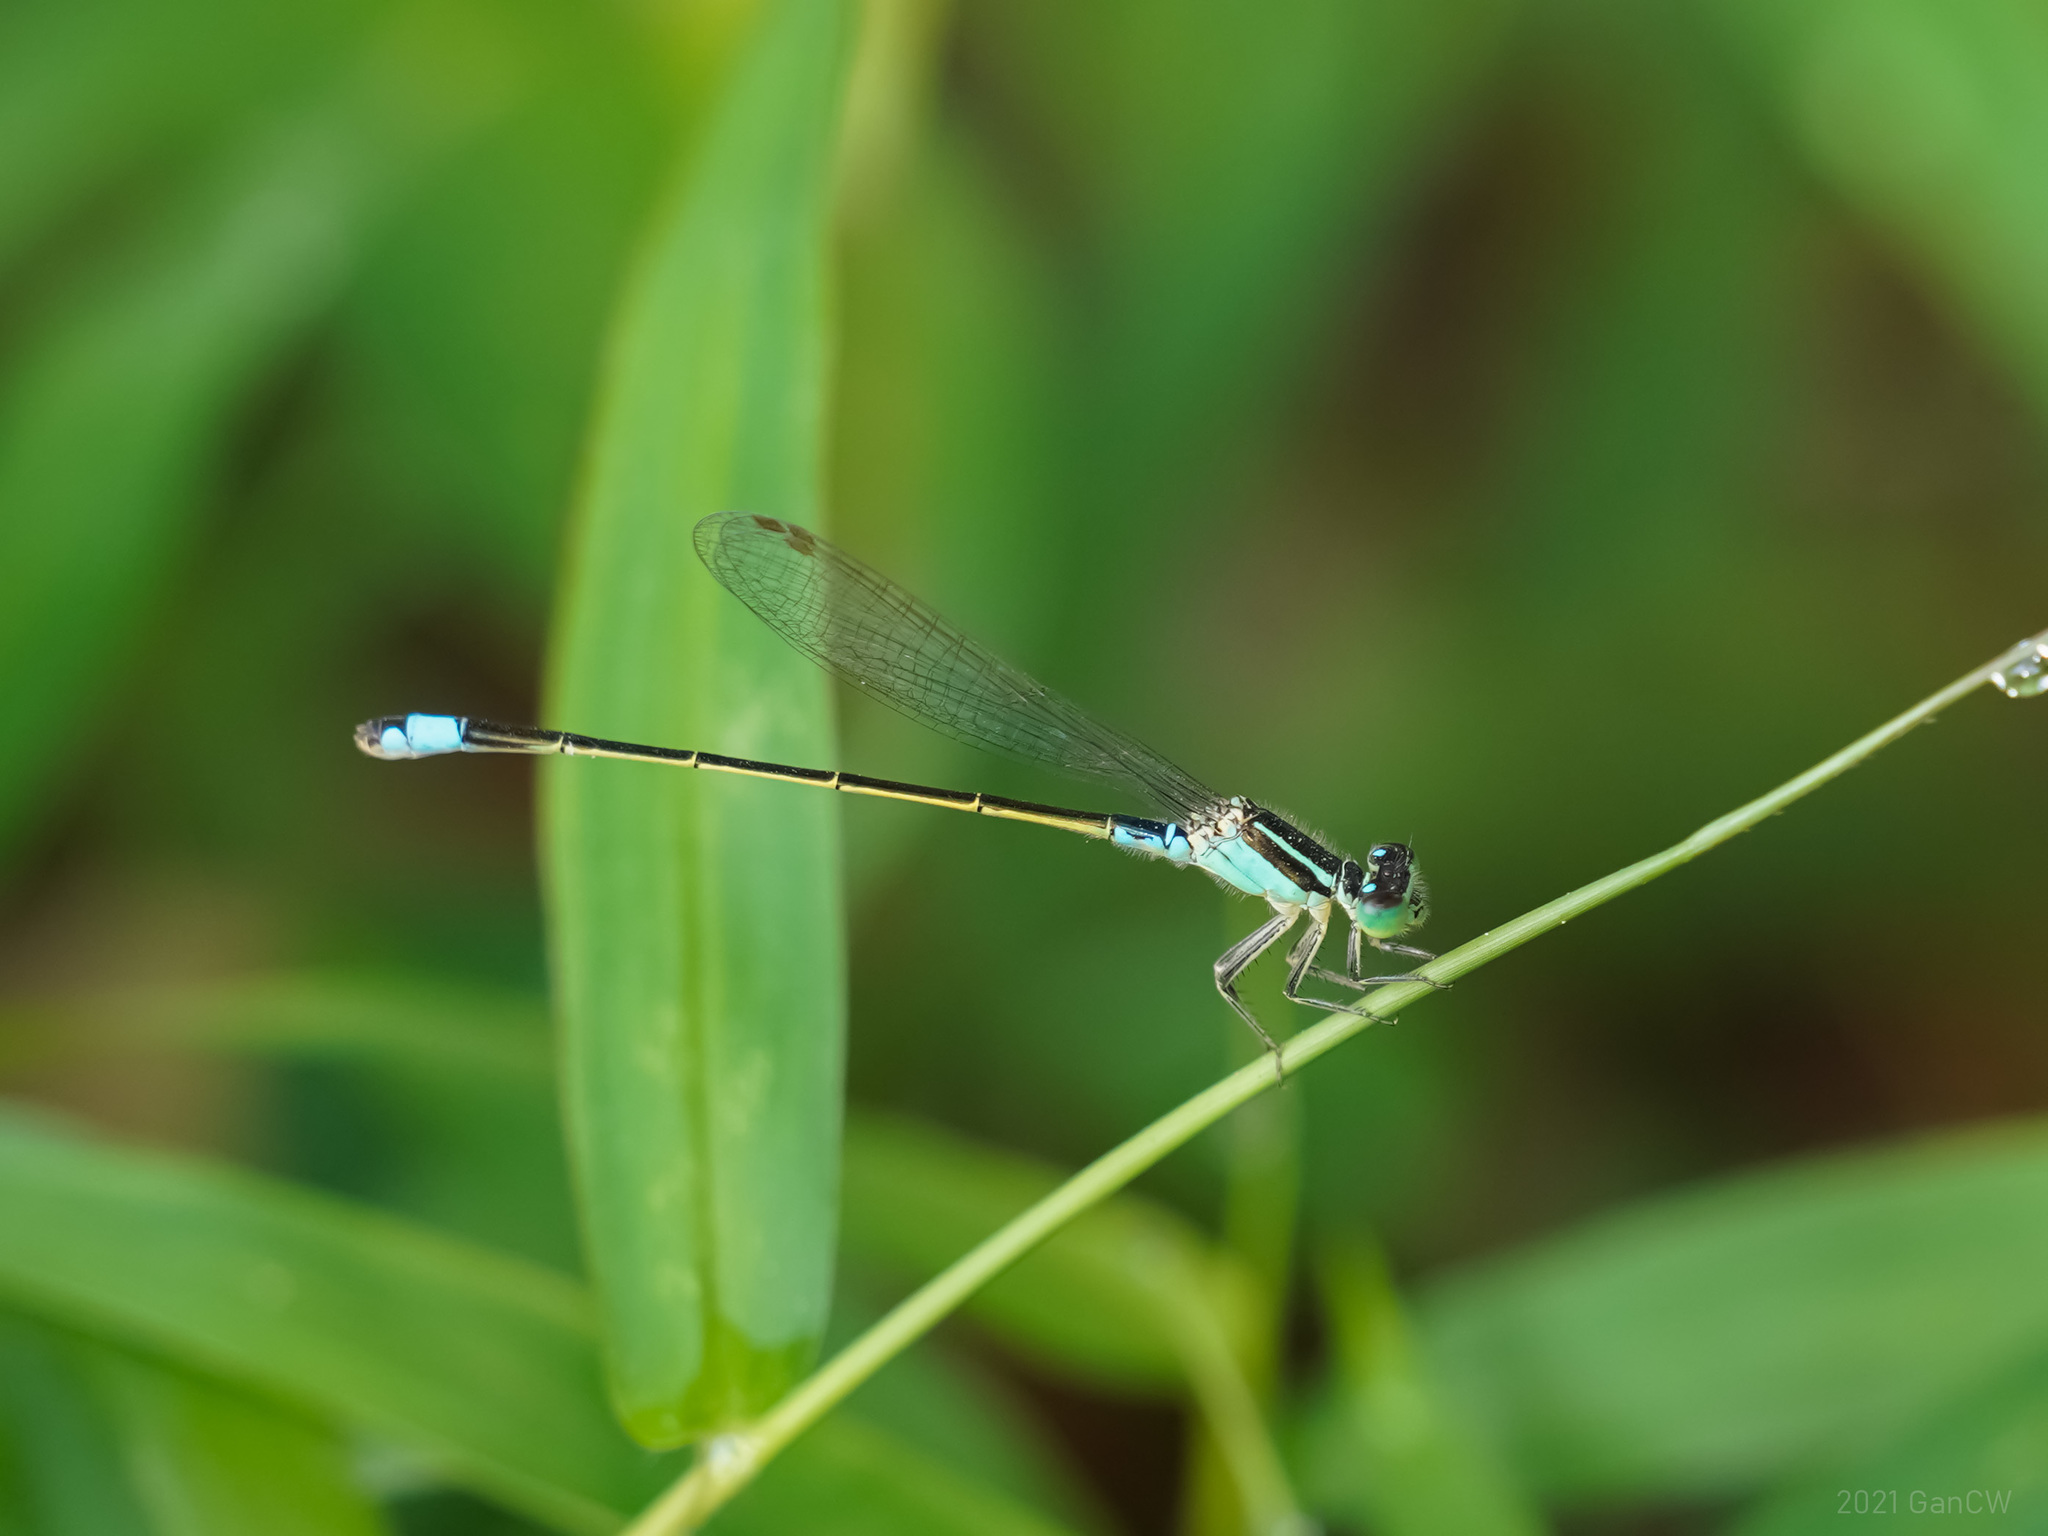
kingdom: Animalia
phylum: Arthropoda
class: Insecta
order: Odonata
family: Coenagrionidae
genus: Ischnura
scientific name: Ischnura senegalensis
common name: Tropical bluetail
